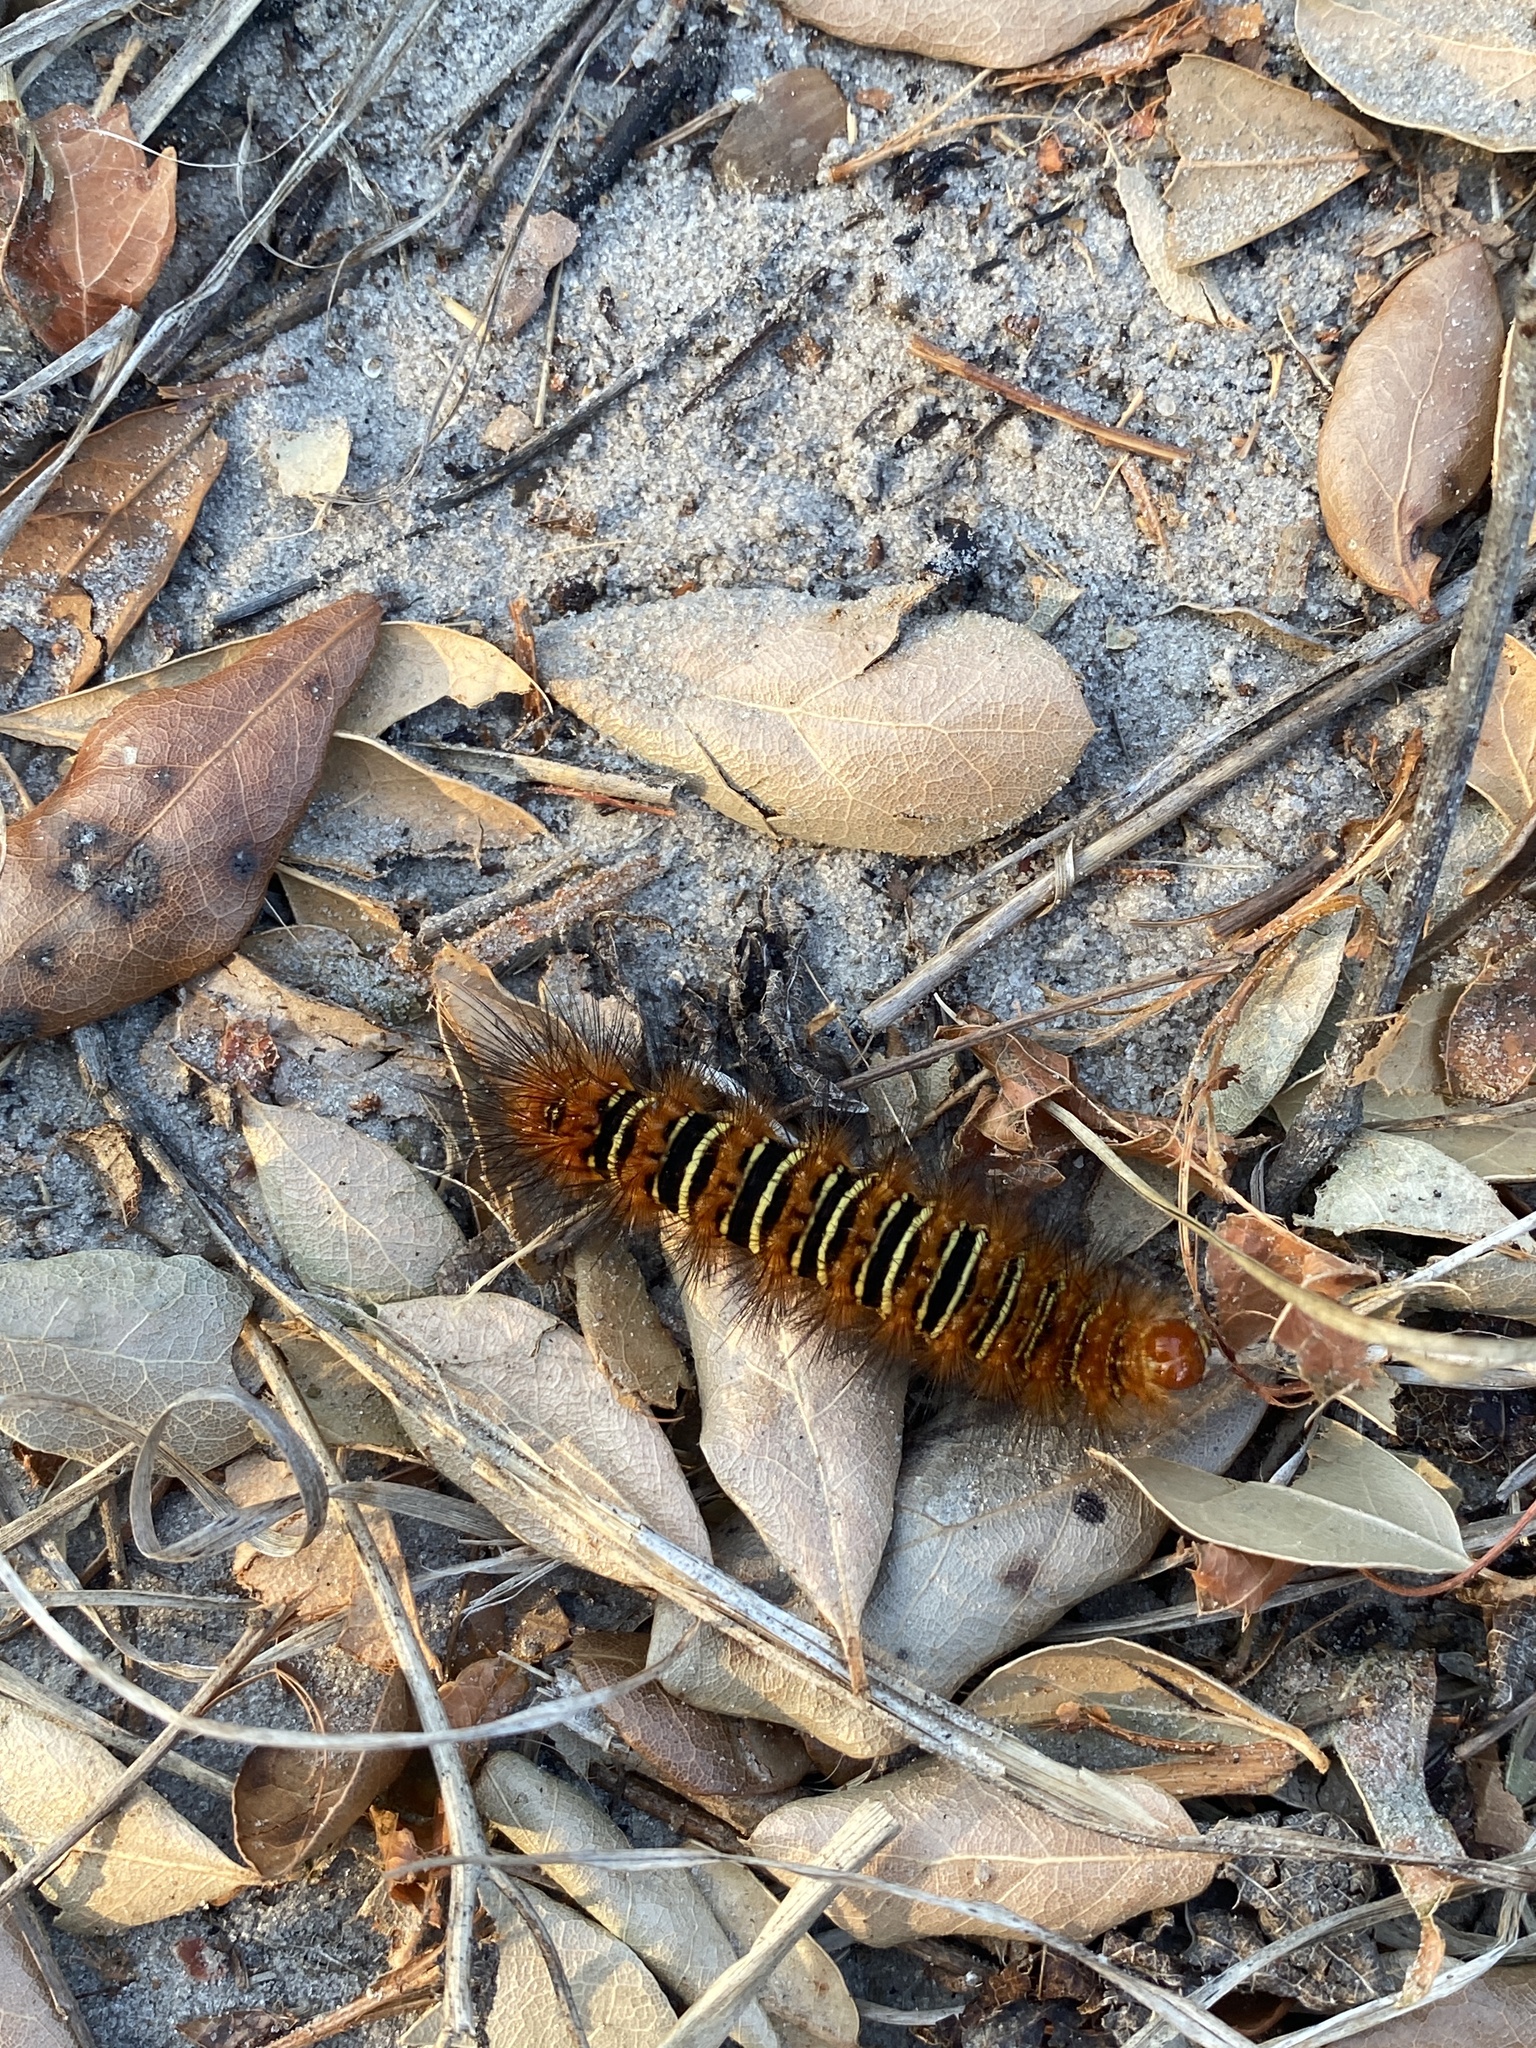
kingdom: Animalia
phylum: Arthropoda
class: Insecta
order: Lepidoptera
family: Erebidae
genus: Seirarctia
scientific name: Seirarctia echo
